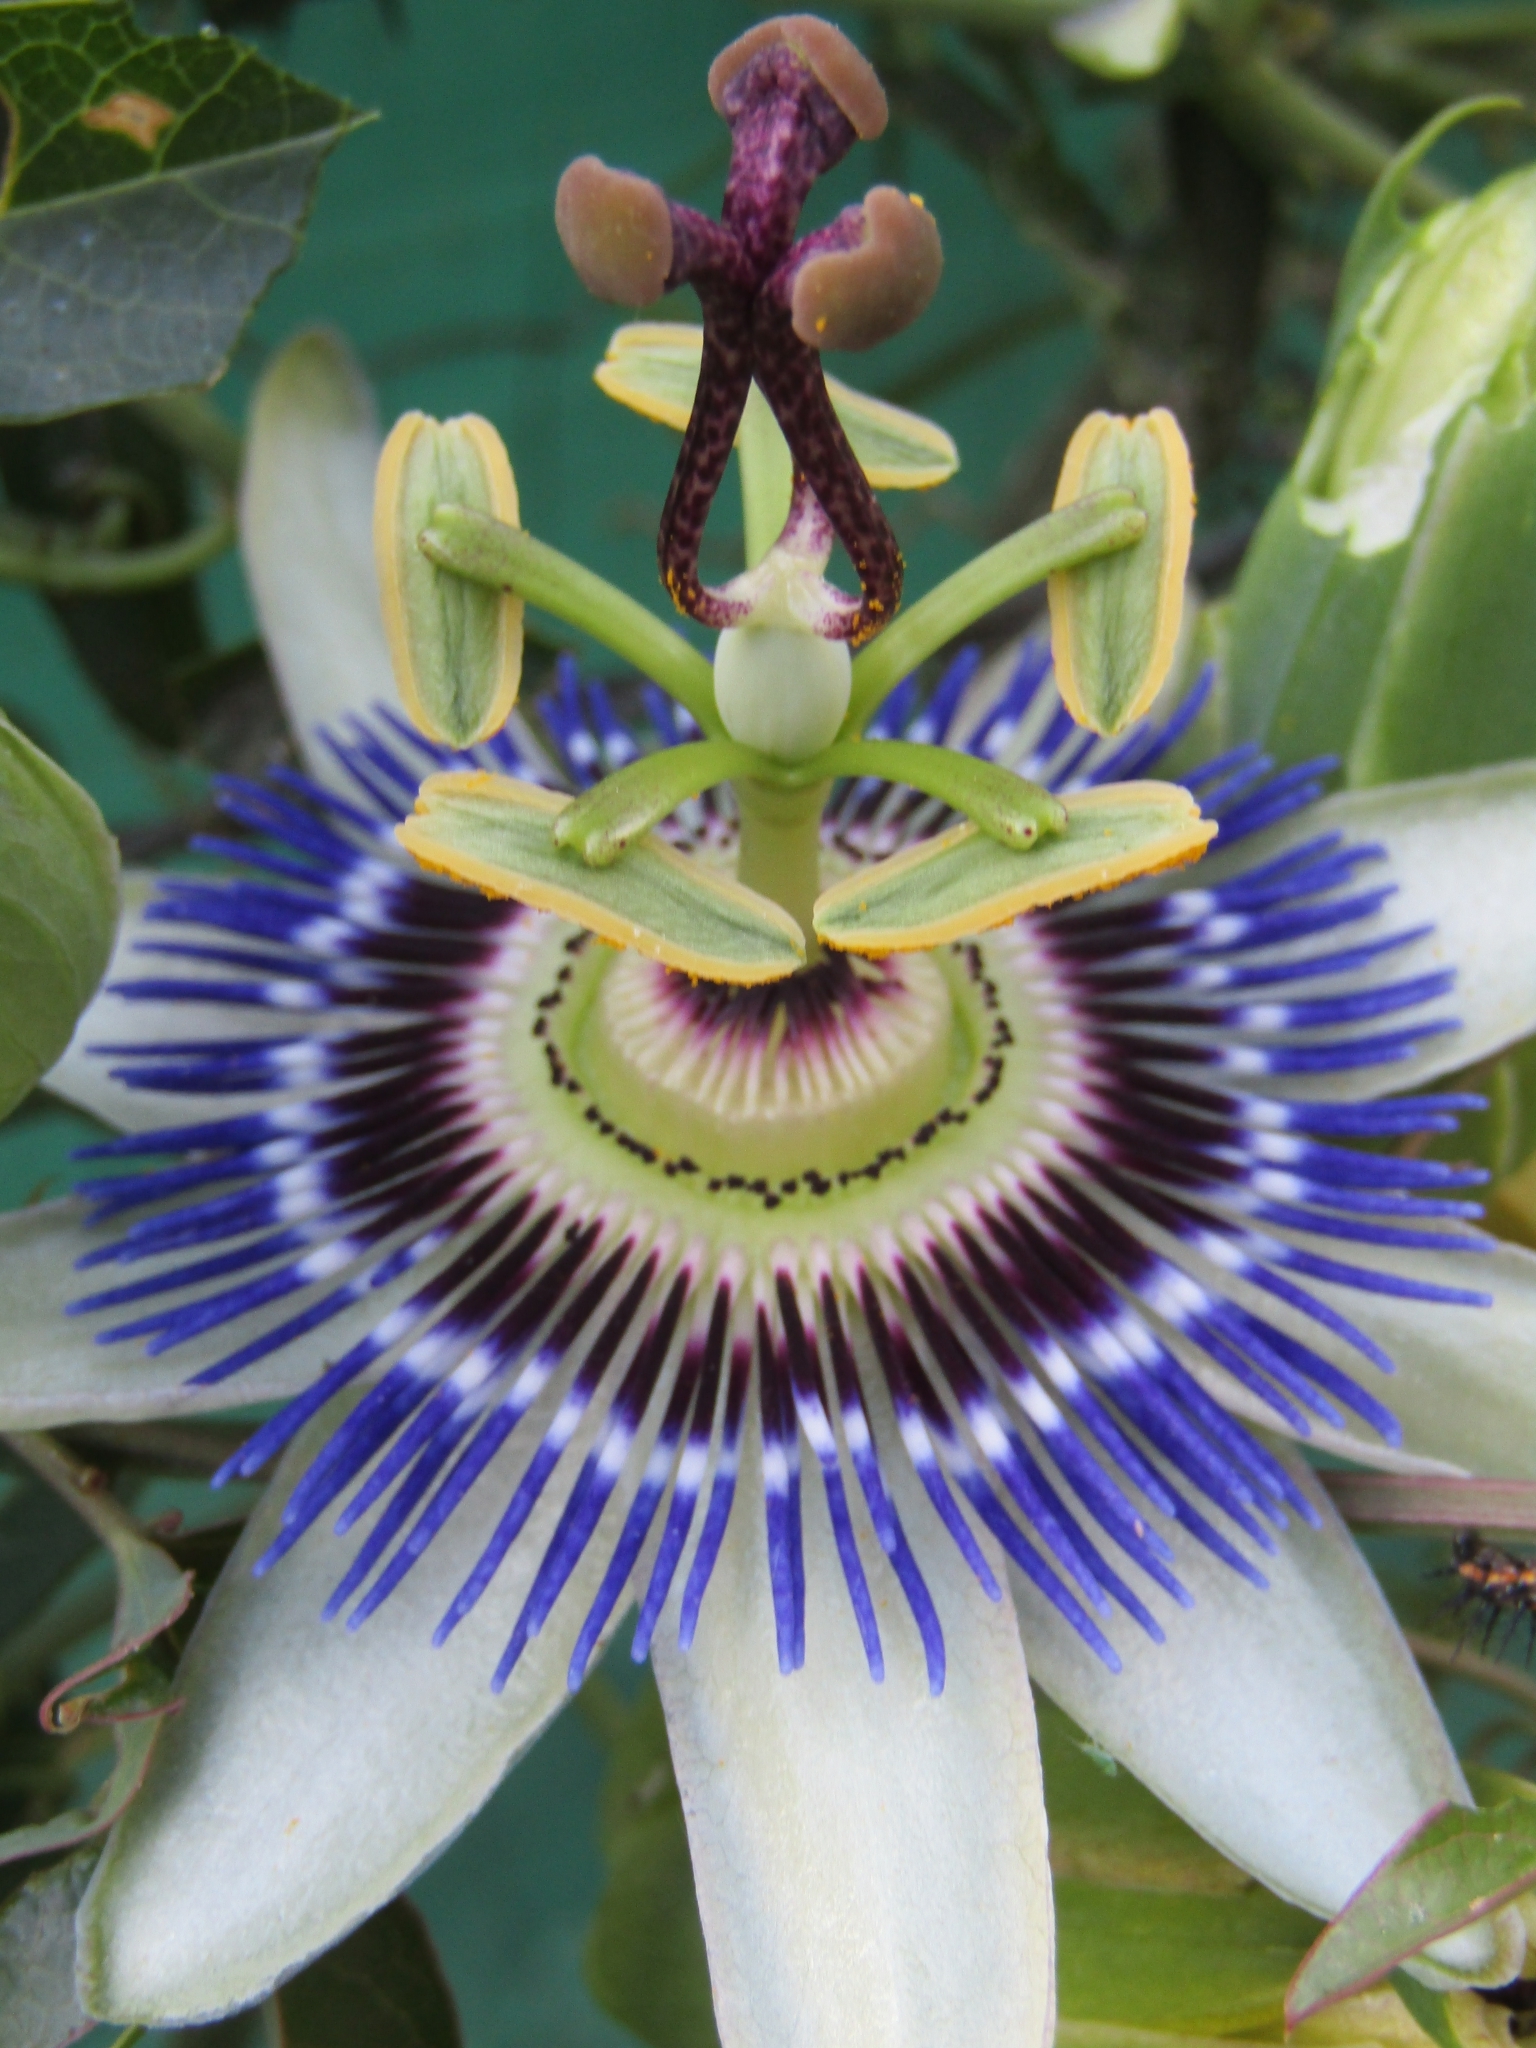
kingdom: Plantae
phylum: Tracheophyta
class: Magnoliopsida
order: Malpighiales
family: Passifloraceae
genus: Passiflora
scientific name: Passiflora caerulea
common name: Blue passionflower
